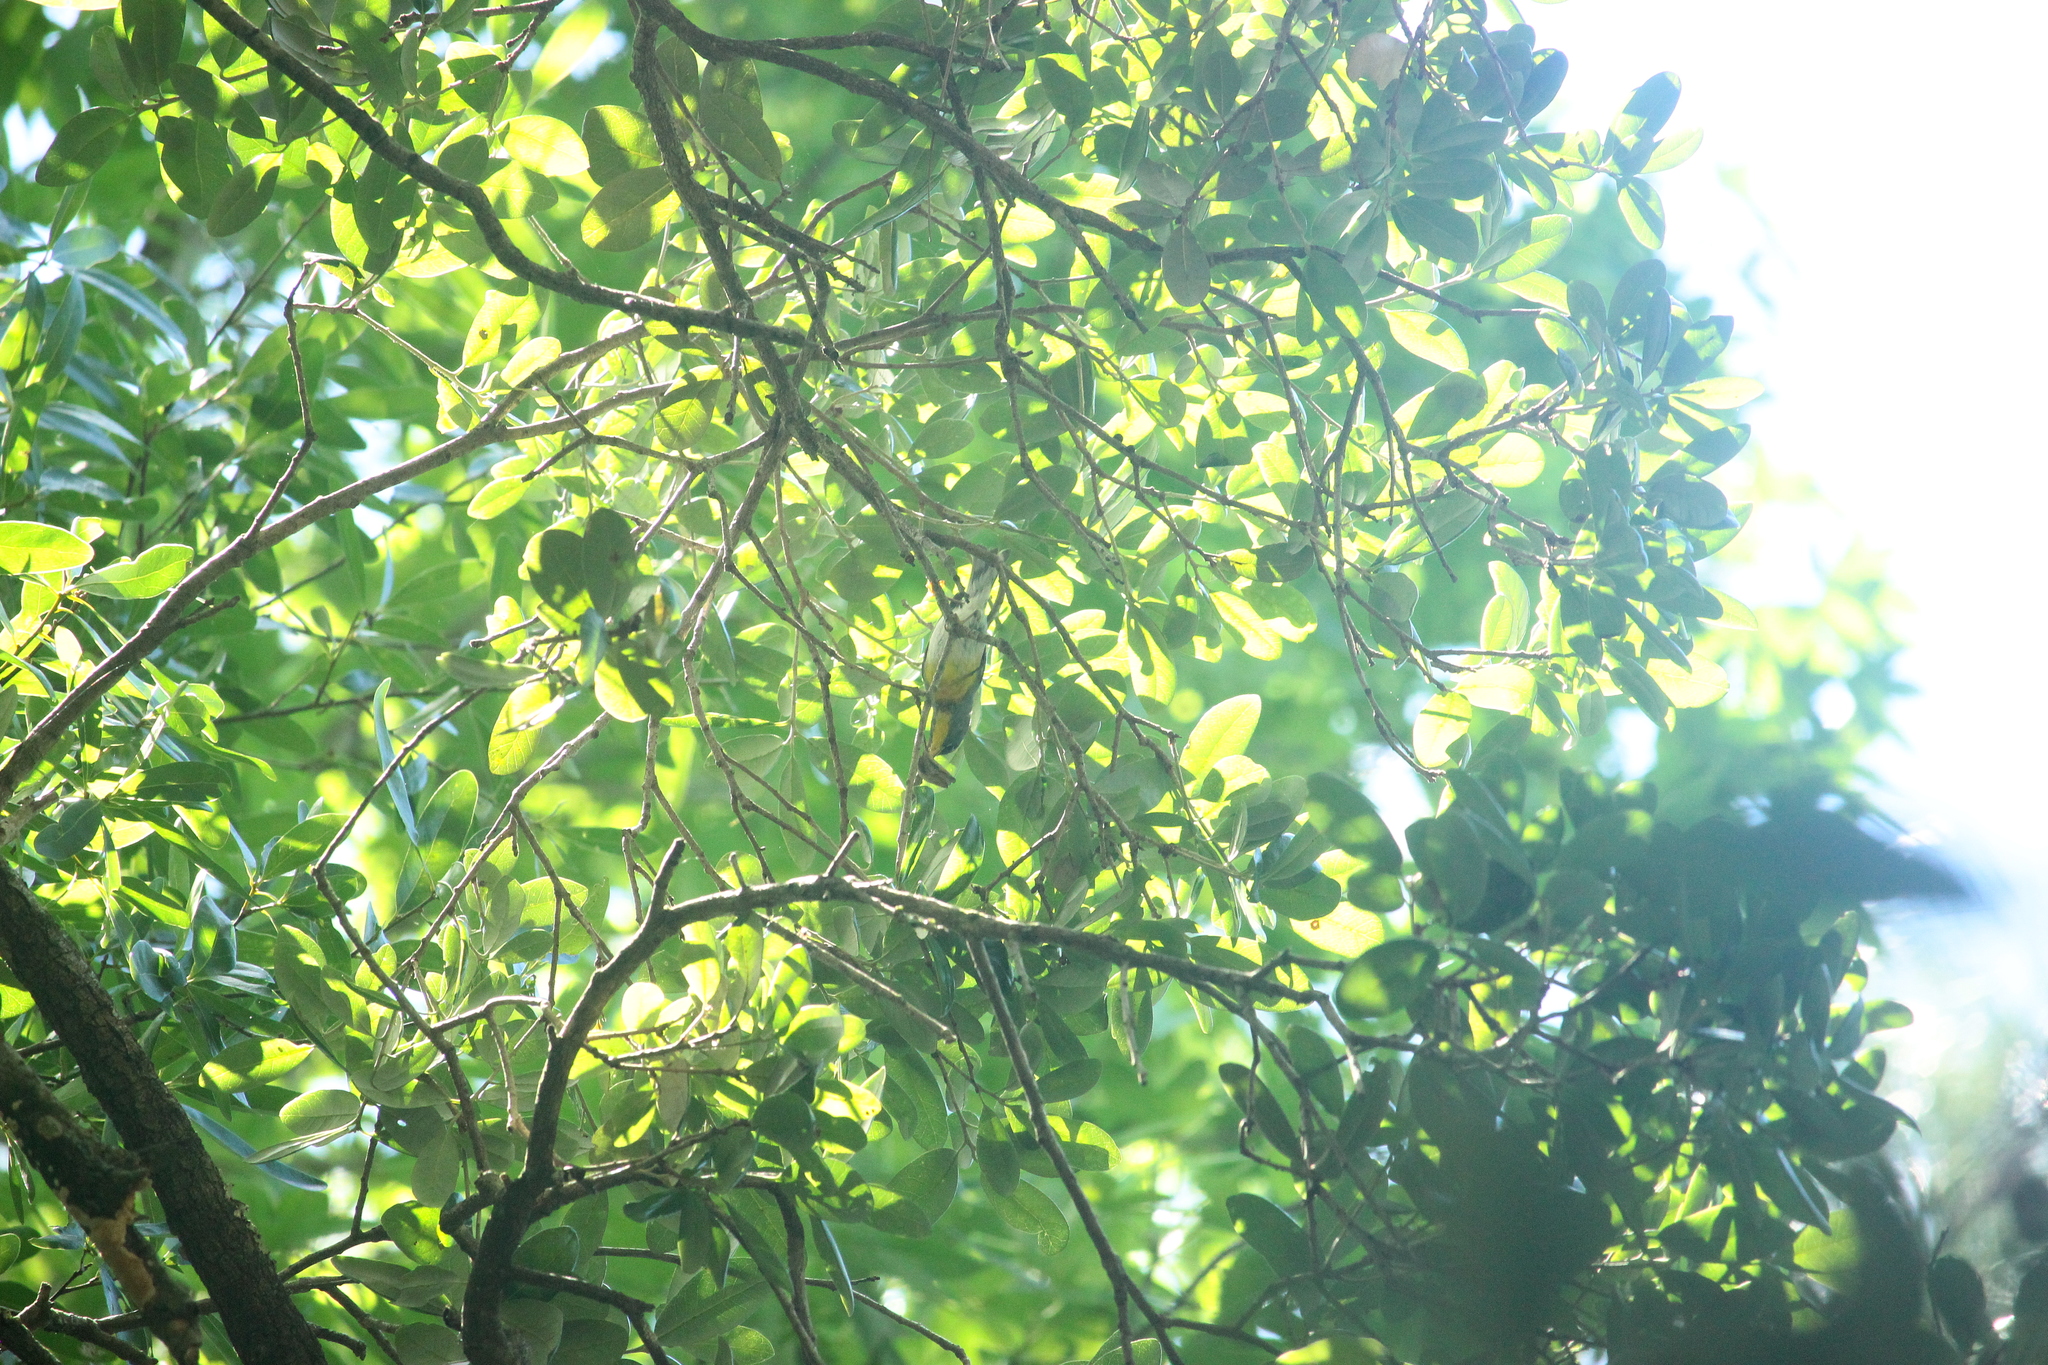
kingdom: Animalia
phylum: Chordata
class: Aves
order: Passeriformes
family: Parulidae
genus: Setophaga
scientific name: Setophaga americana
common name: Northern parula
